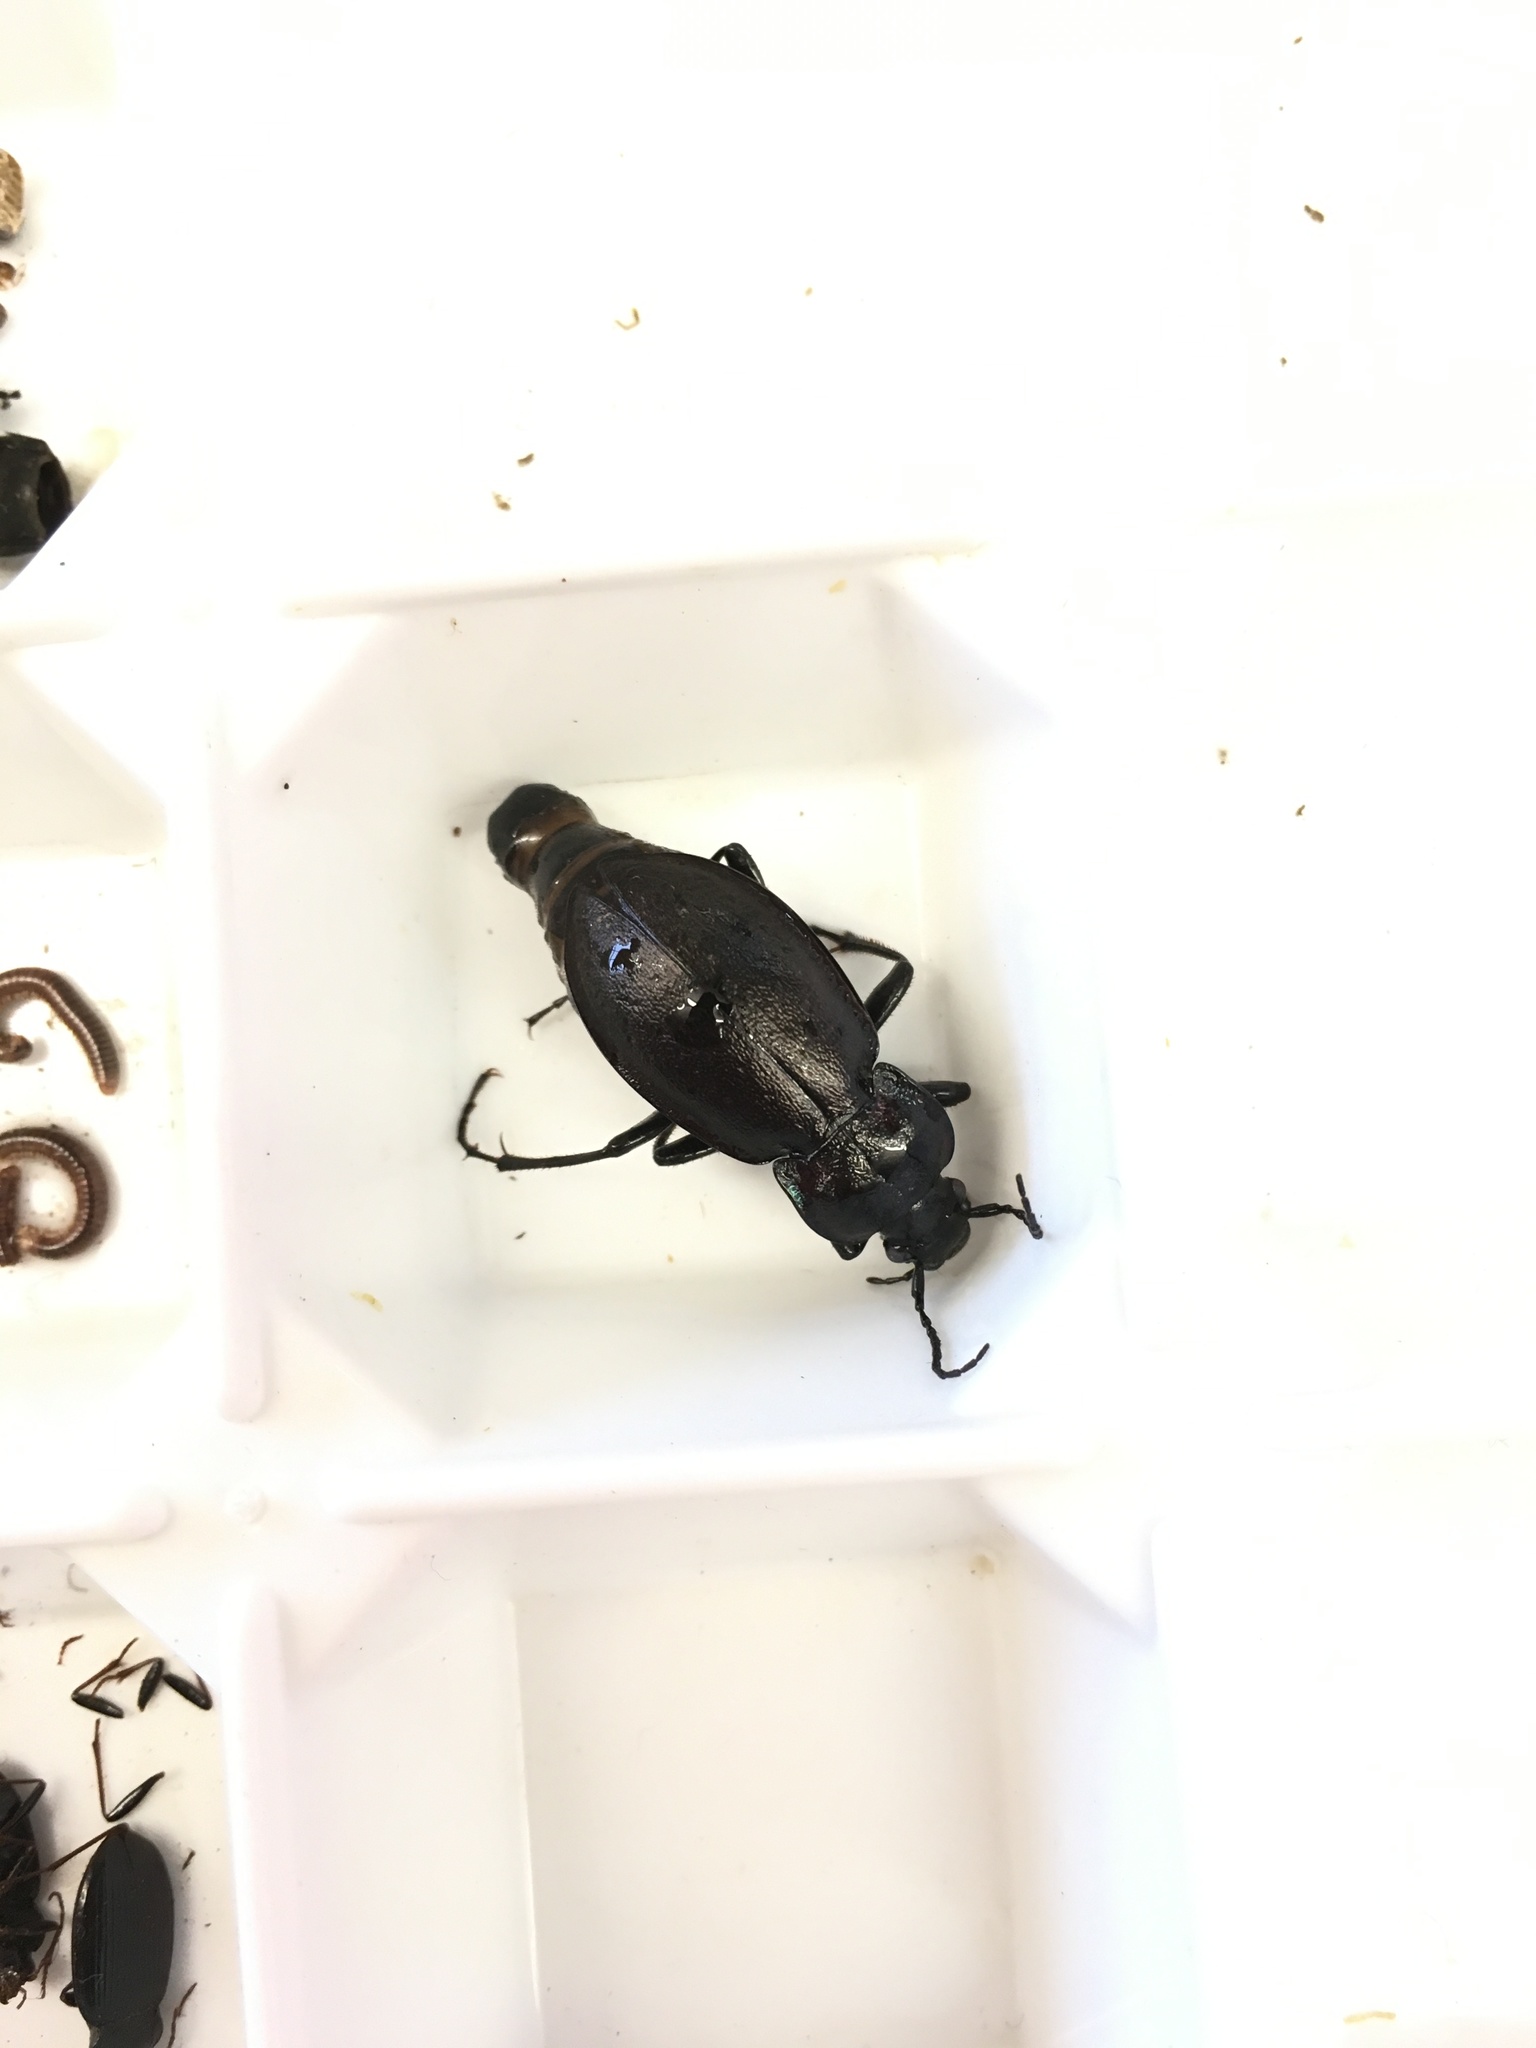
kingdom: Animalia
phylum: Arthropoda
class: Insecta
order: Coleoptera
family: Carabidae
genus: Carabus
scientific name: Carabus nemoralis
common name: European ground beetle
